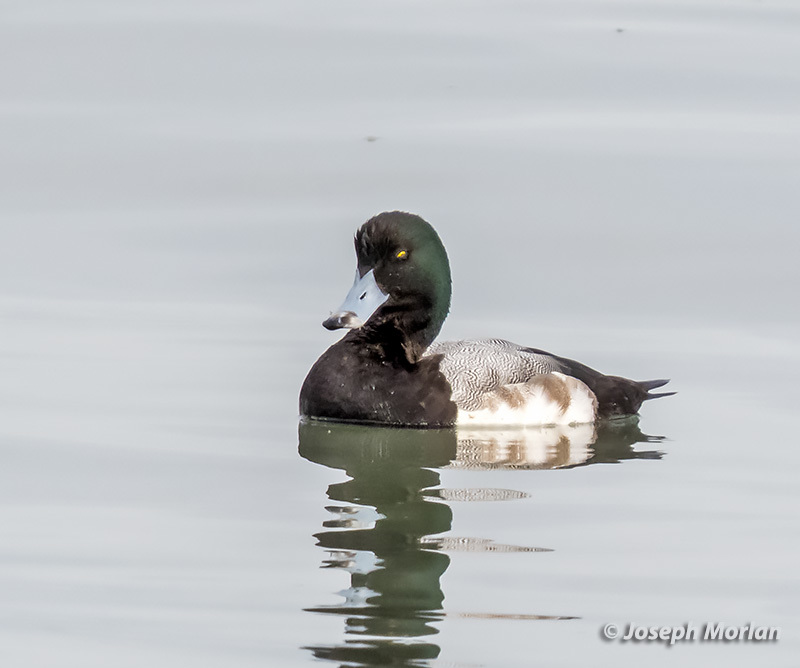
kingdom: Animalia
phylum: Chordata
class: Aves
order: Anseriformes
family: Anatidae
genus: Aythya
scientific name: Aythya marila
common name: Greater scaup
